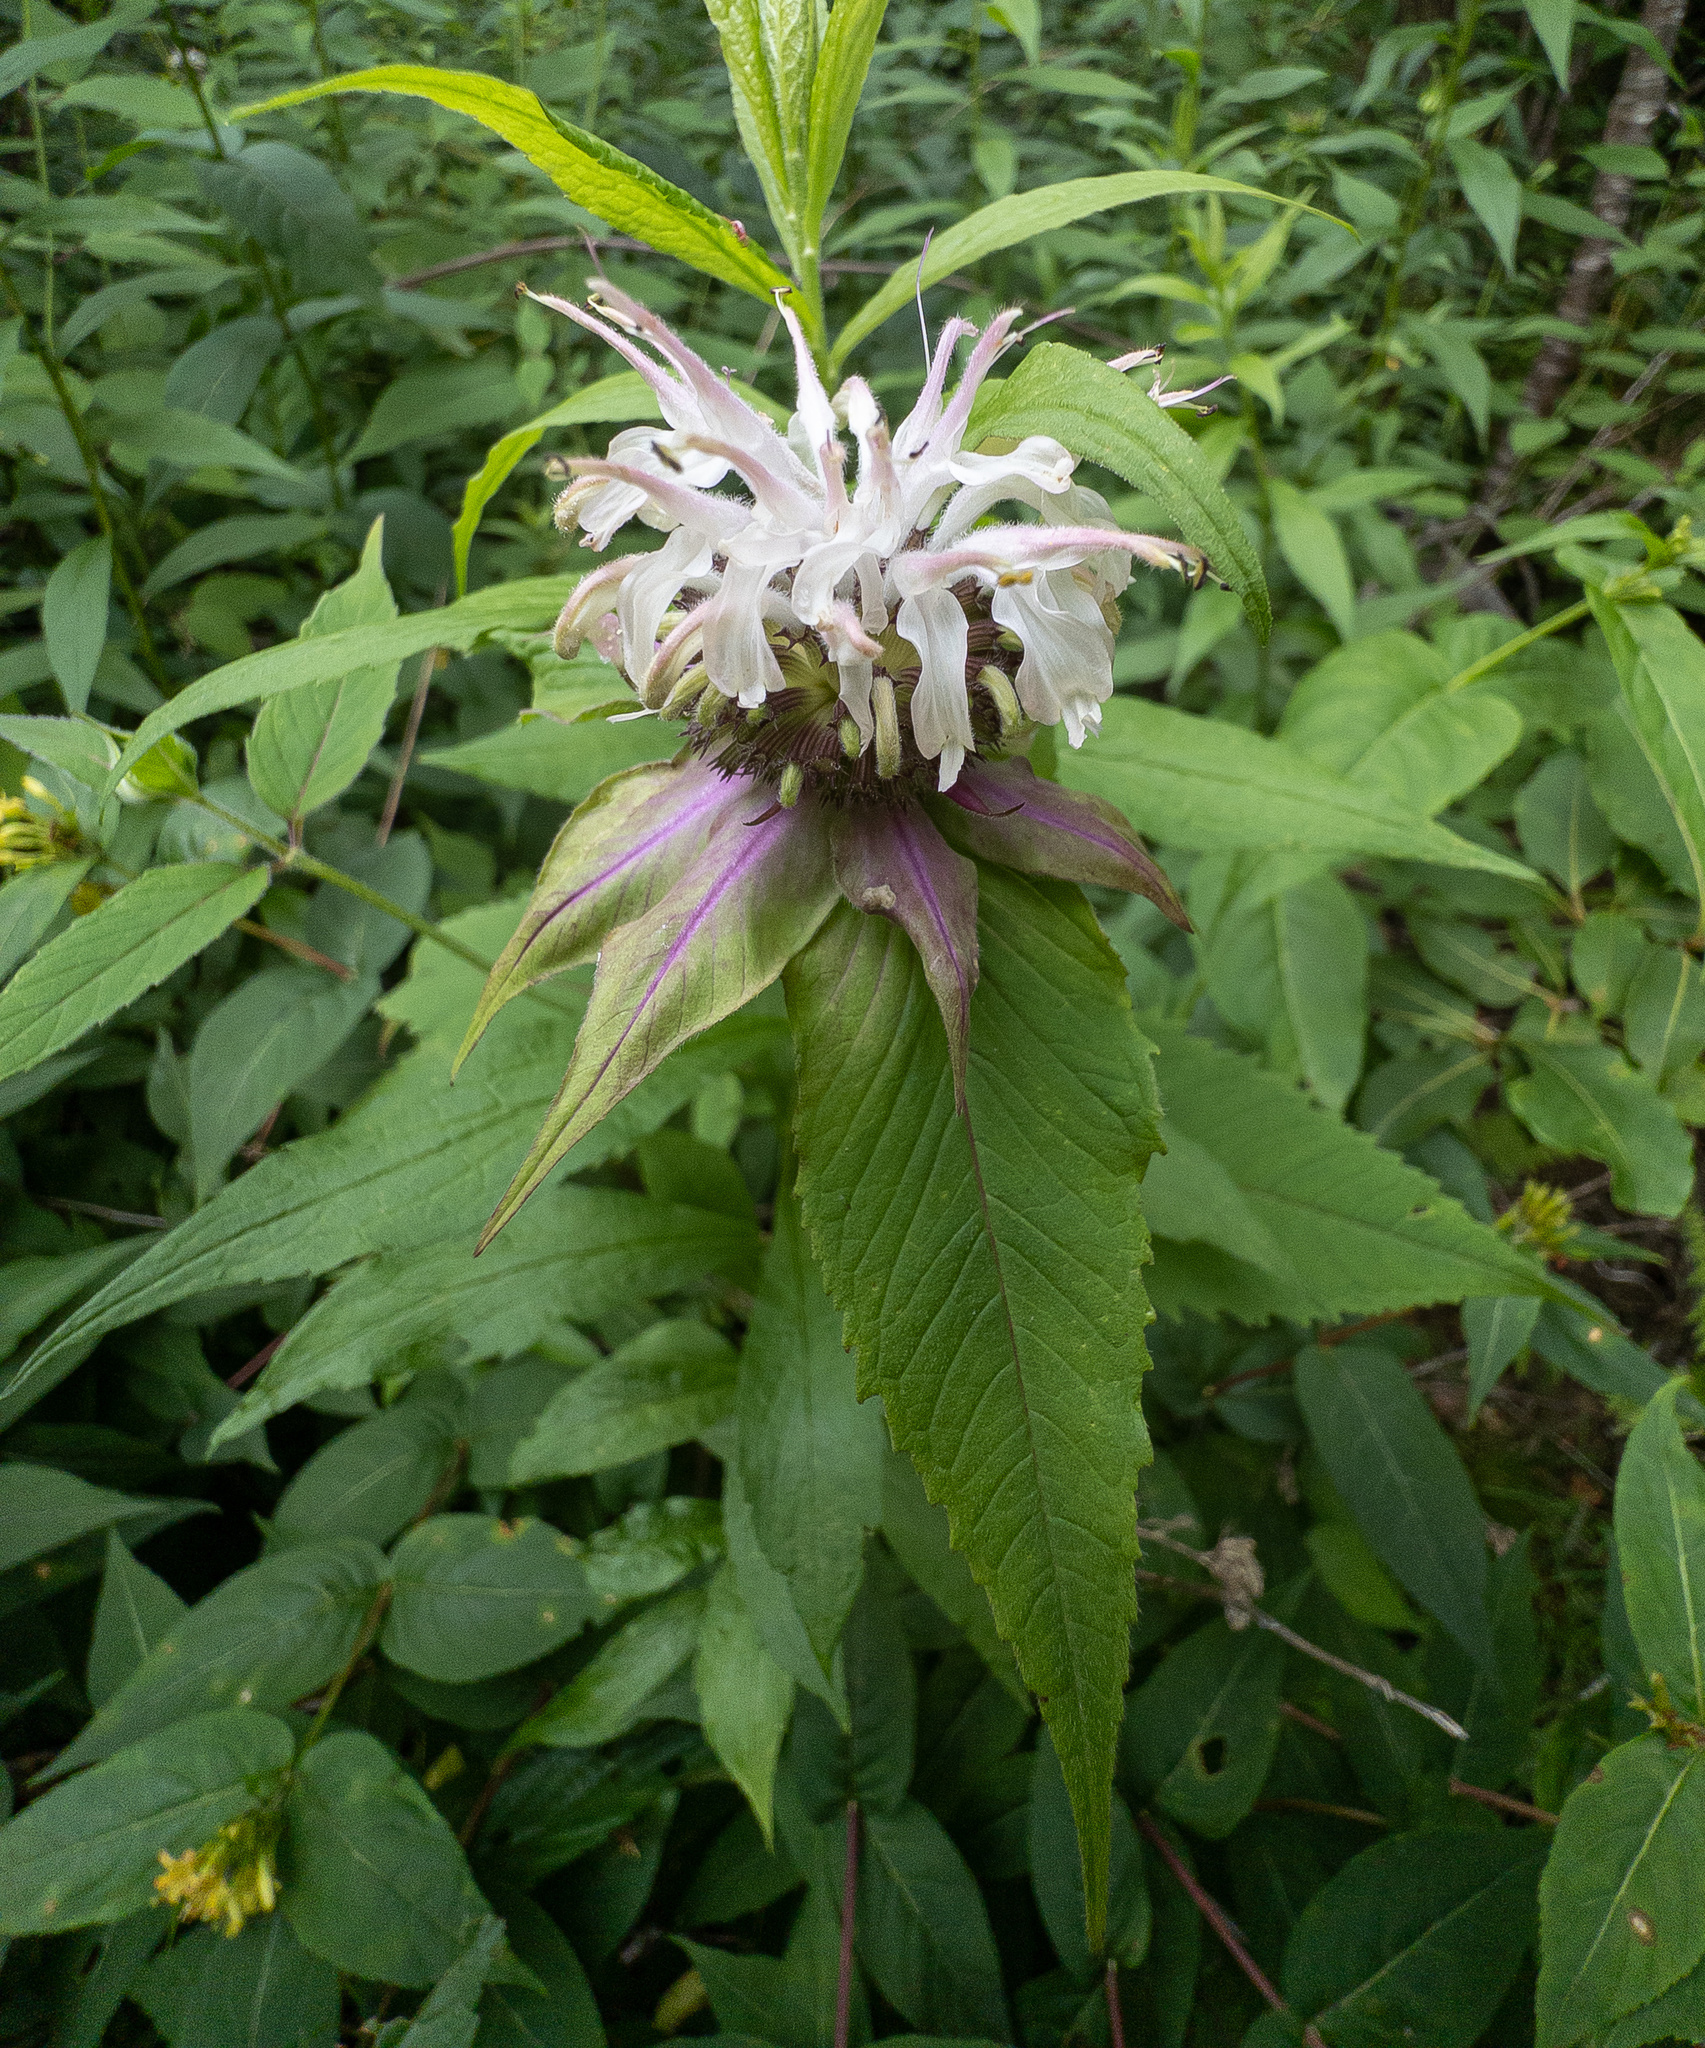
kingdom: Plantae
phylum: Tracheophyta
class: Magnoliopsida
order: Lamiales
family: Lamiaceae
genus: Monarda
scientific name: Monarda clinopodia
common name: Basil beebalm
